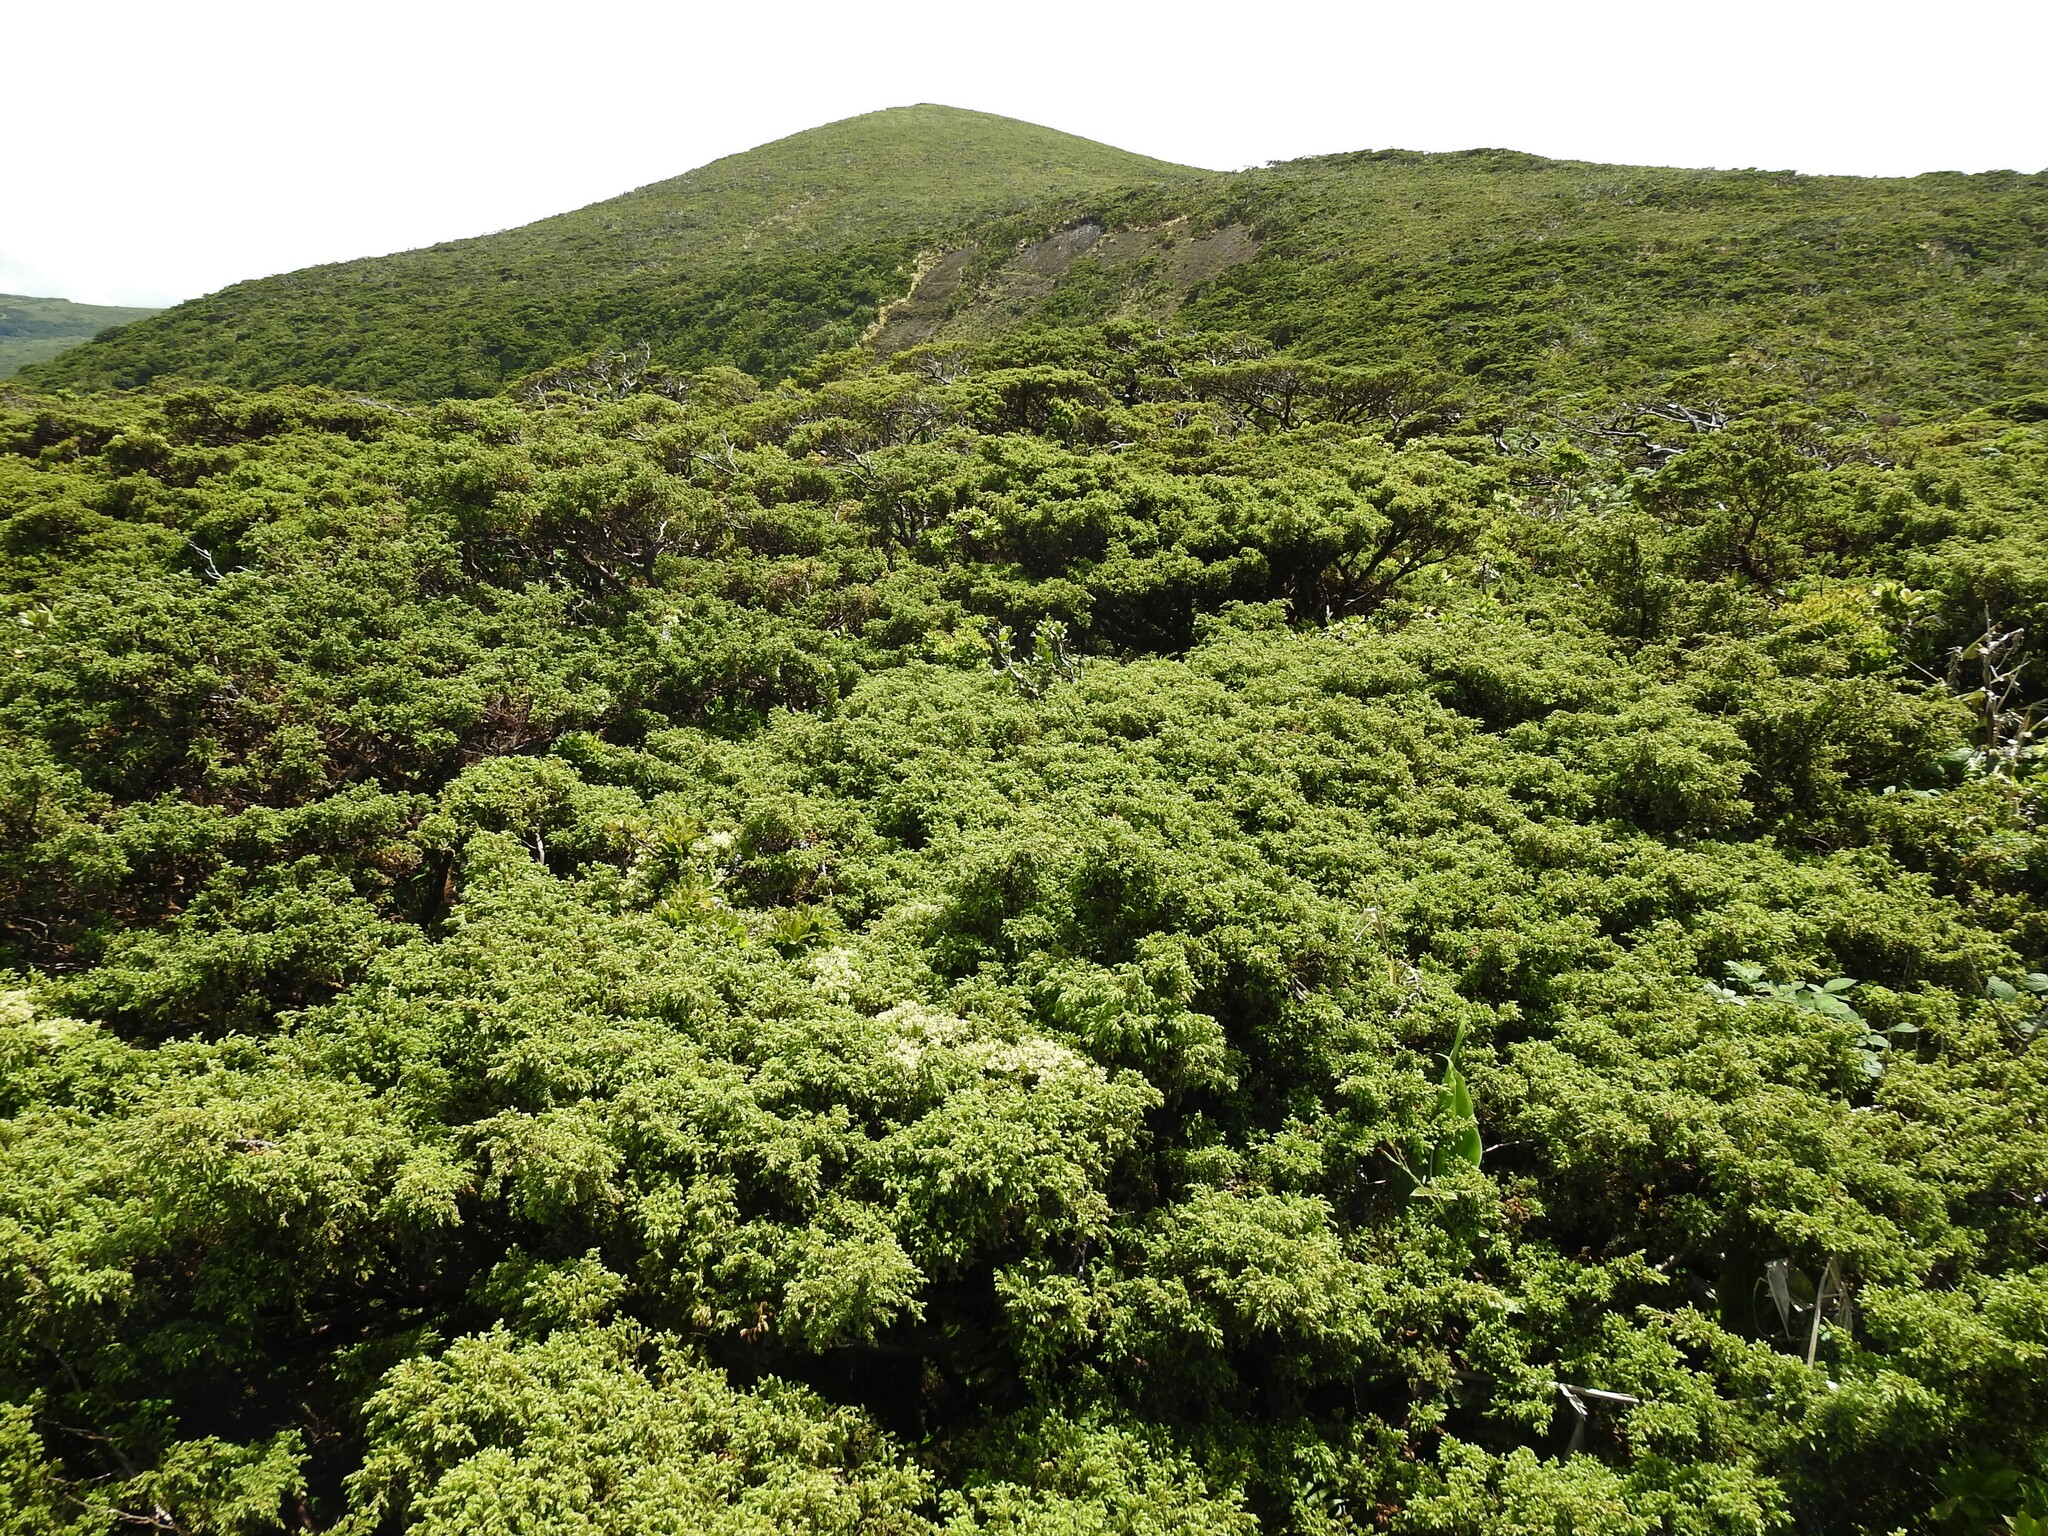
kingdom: Plantae
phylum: Tracheophyta
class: Pinopsida
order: Pinales
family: Cupressaceae
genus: Juniperus
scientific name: Juniperus brevifolia
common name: Azores juniper
